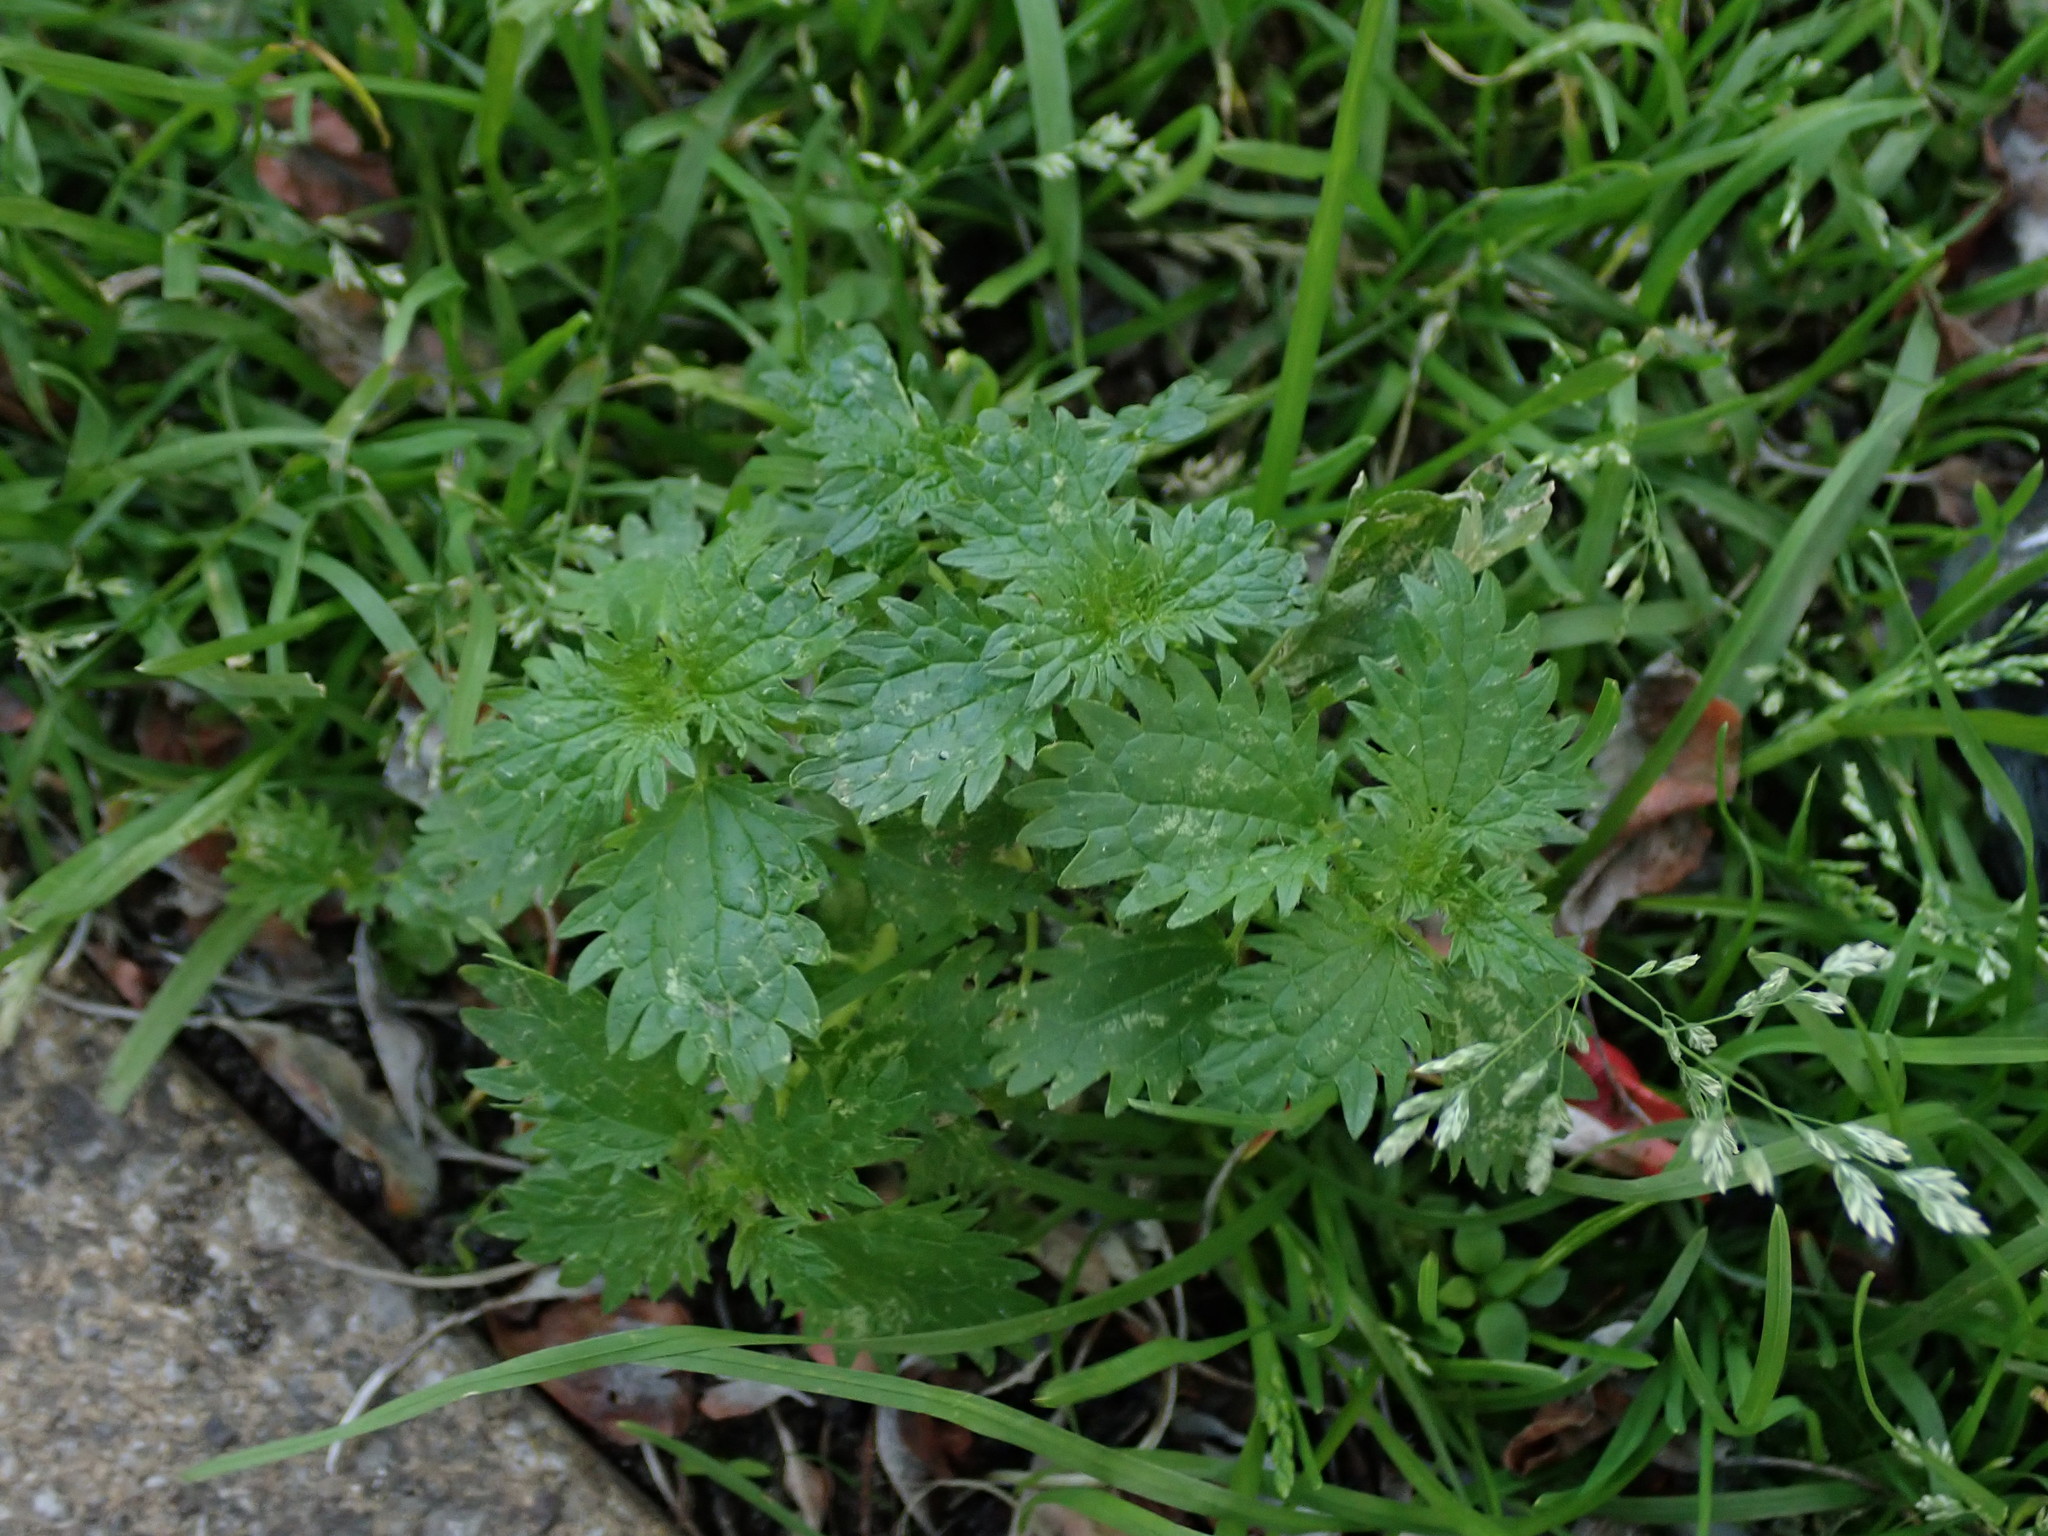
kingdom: Plantae
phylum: Tracheophyta
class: Magnoliopsida
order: Rosales
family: Urticaceae
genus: Urtica
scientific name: Urtica urens
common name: Dwarf nettle
